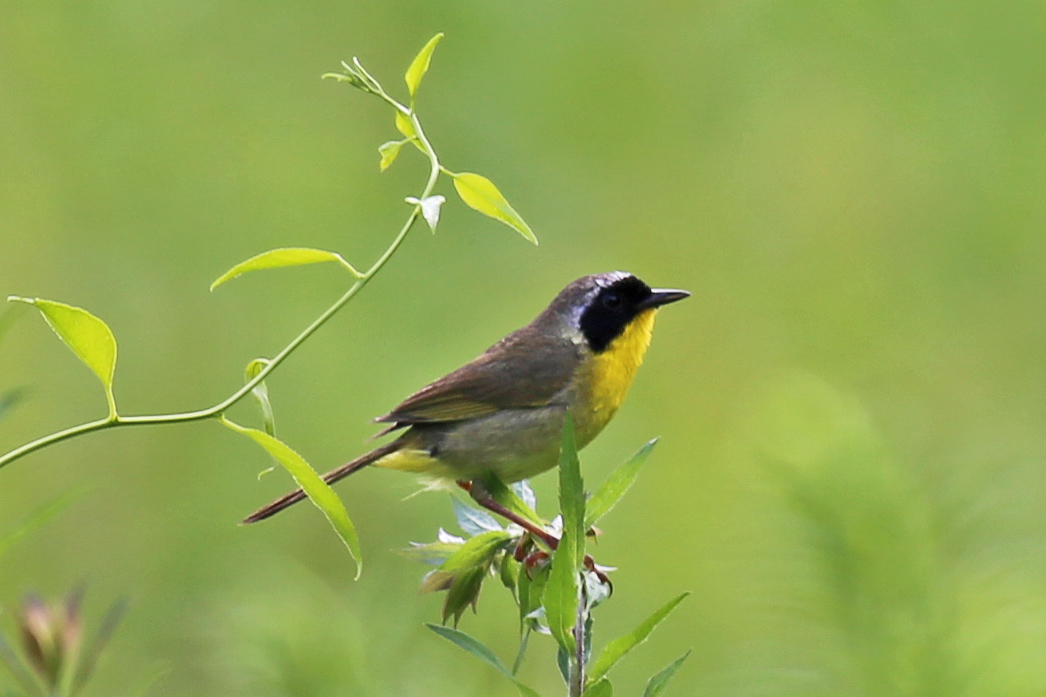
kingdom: Animalia
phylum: Chordata
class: Aves
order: Passeriformes
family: Parulidae
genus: Geothlypis
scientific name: Geothlypis trichas
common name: Common yellowthroat
